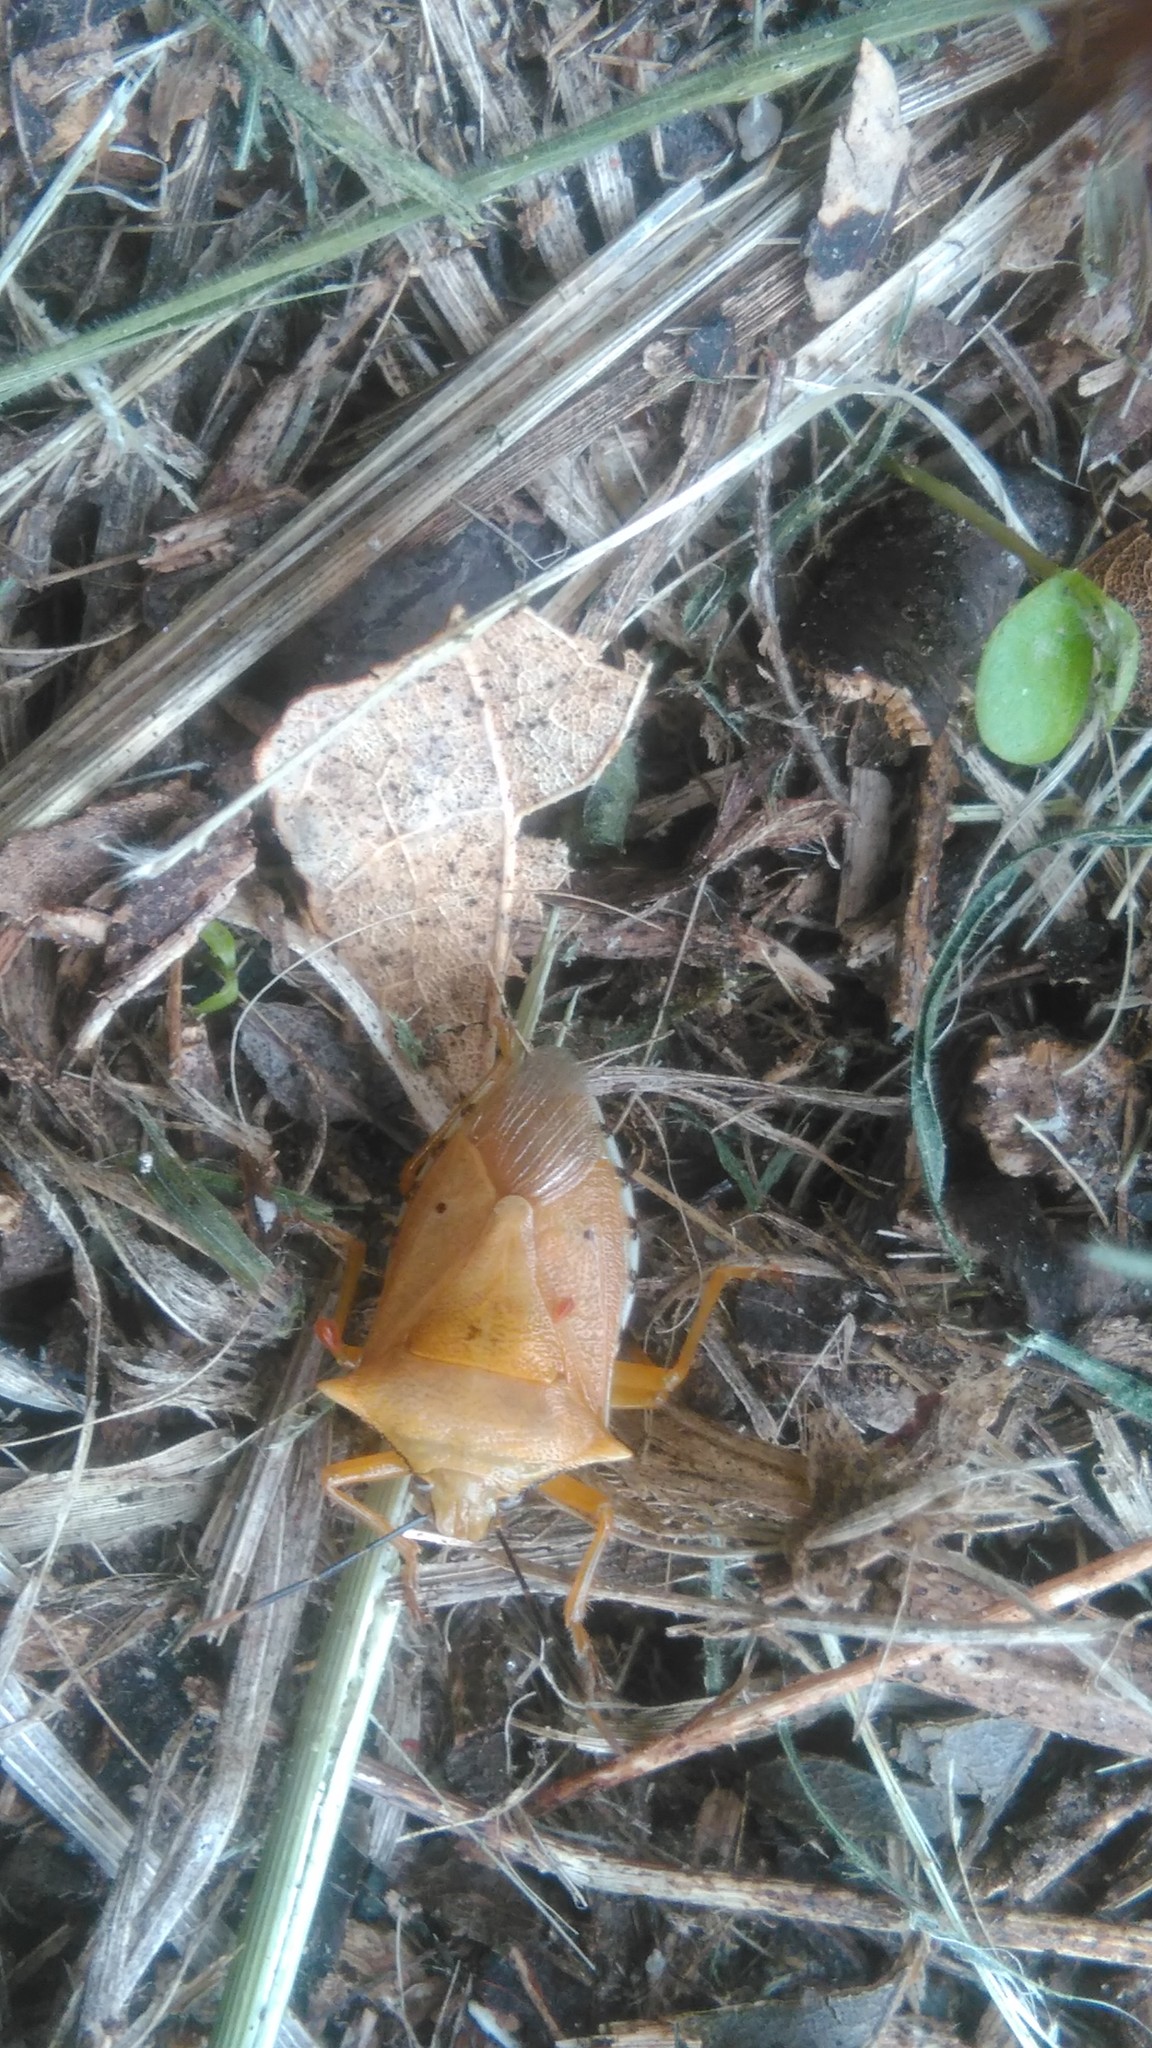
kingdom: Animalia
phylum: Arthropoda
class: Insecta
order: Hemiptera
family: Pentatomidae
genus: Brontocoris
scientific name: Brontocoris tabidus
